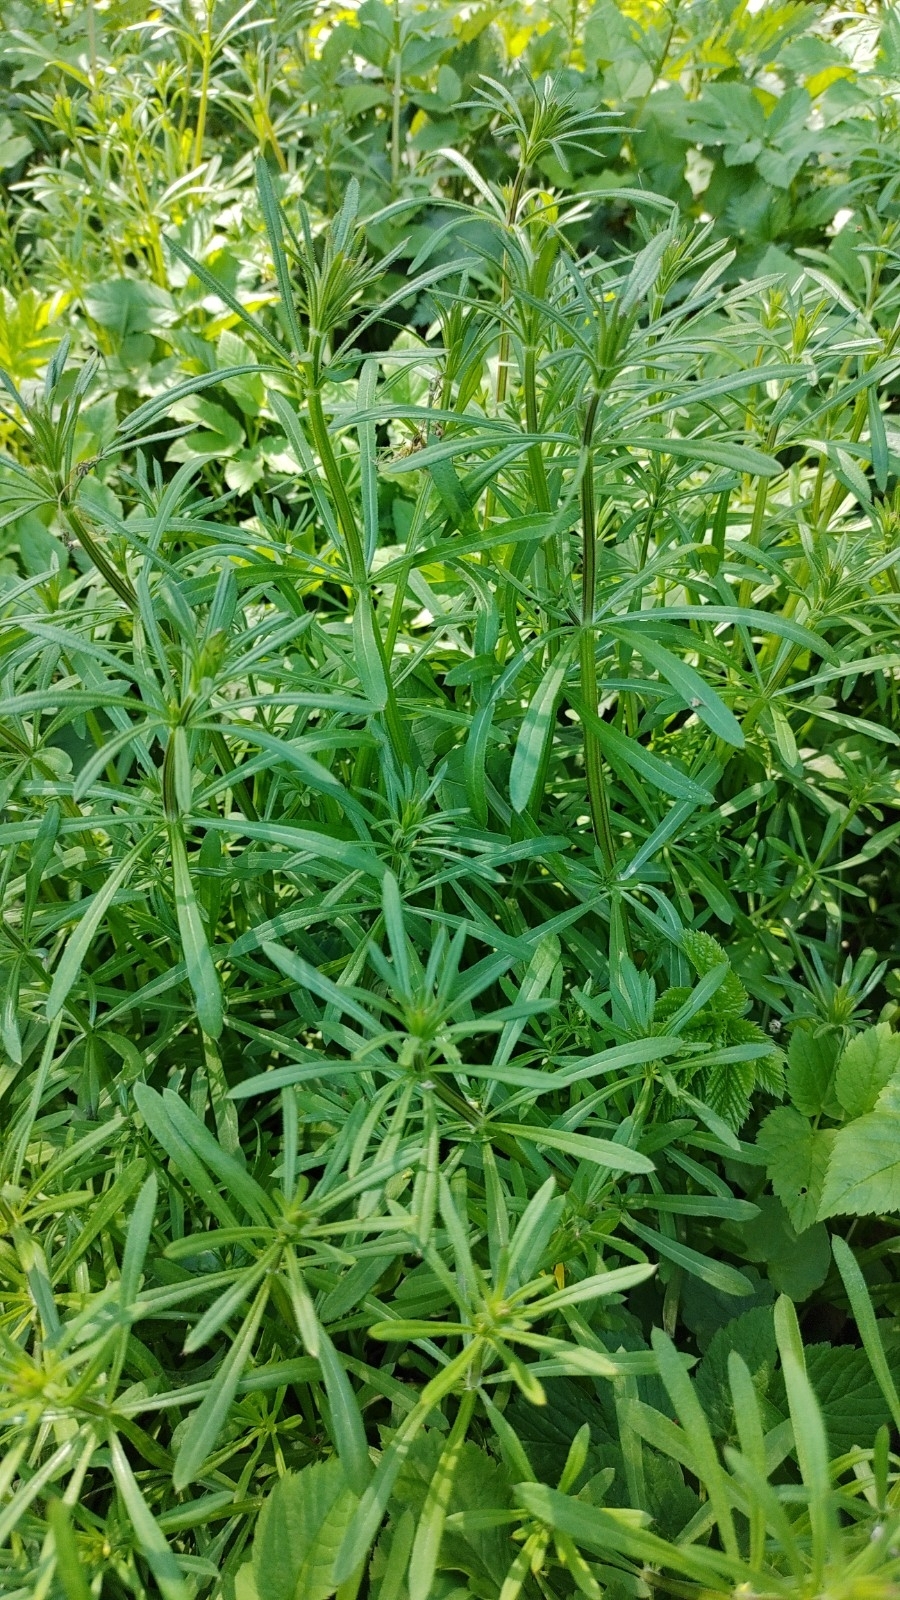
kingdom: Plantae
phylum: Tracheophyta
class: Magnoliopsida
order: Gentianales
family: Rubiaceae
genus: Galium
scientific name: Galium aparine
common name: Cleavers
